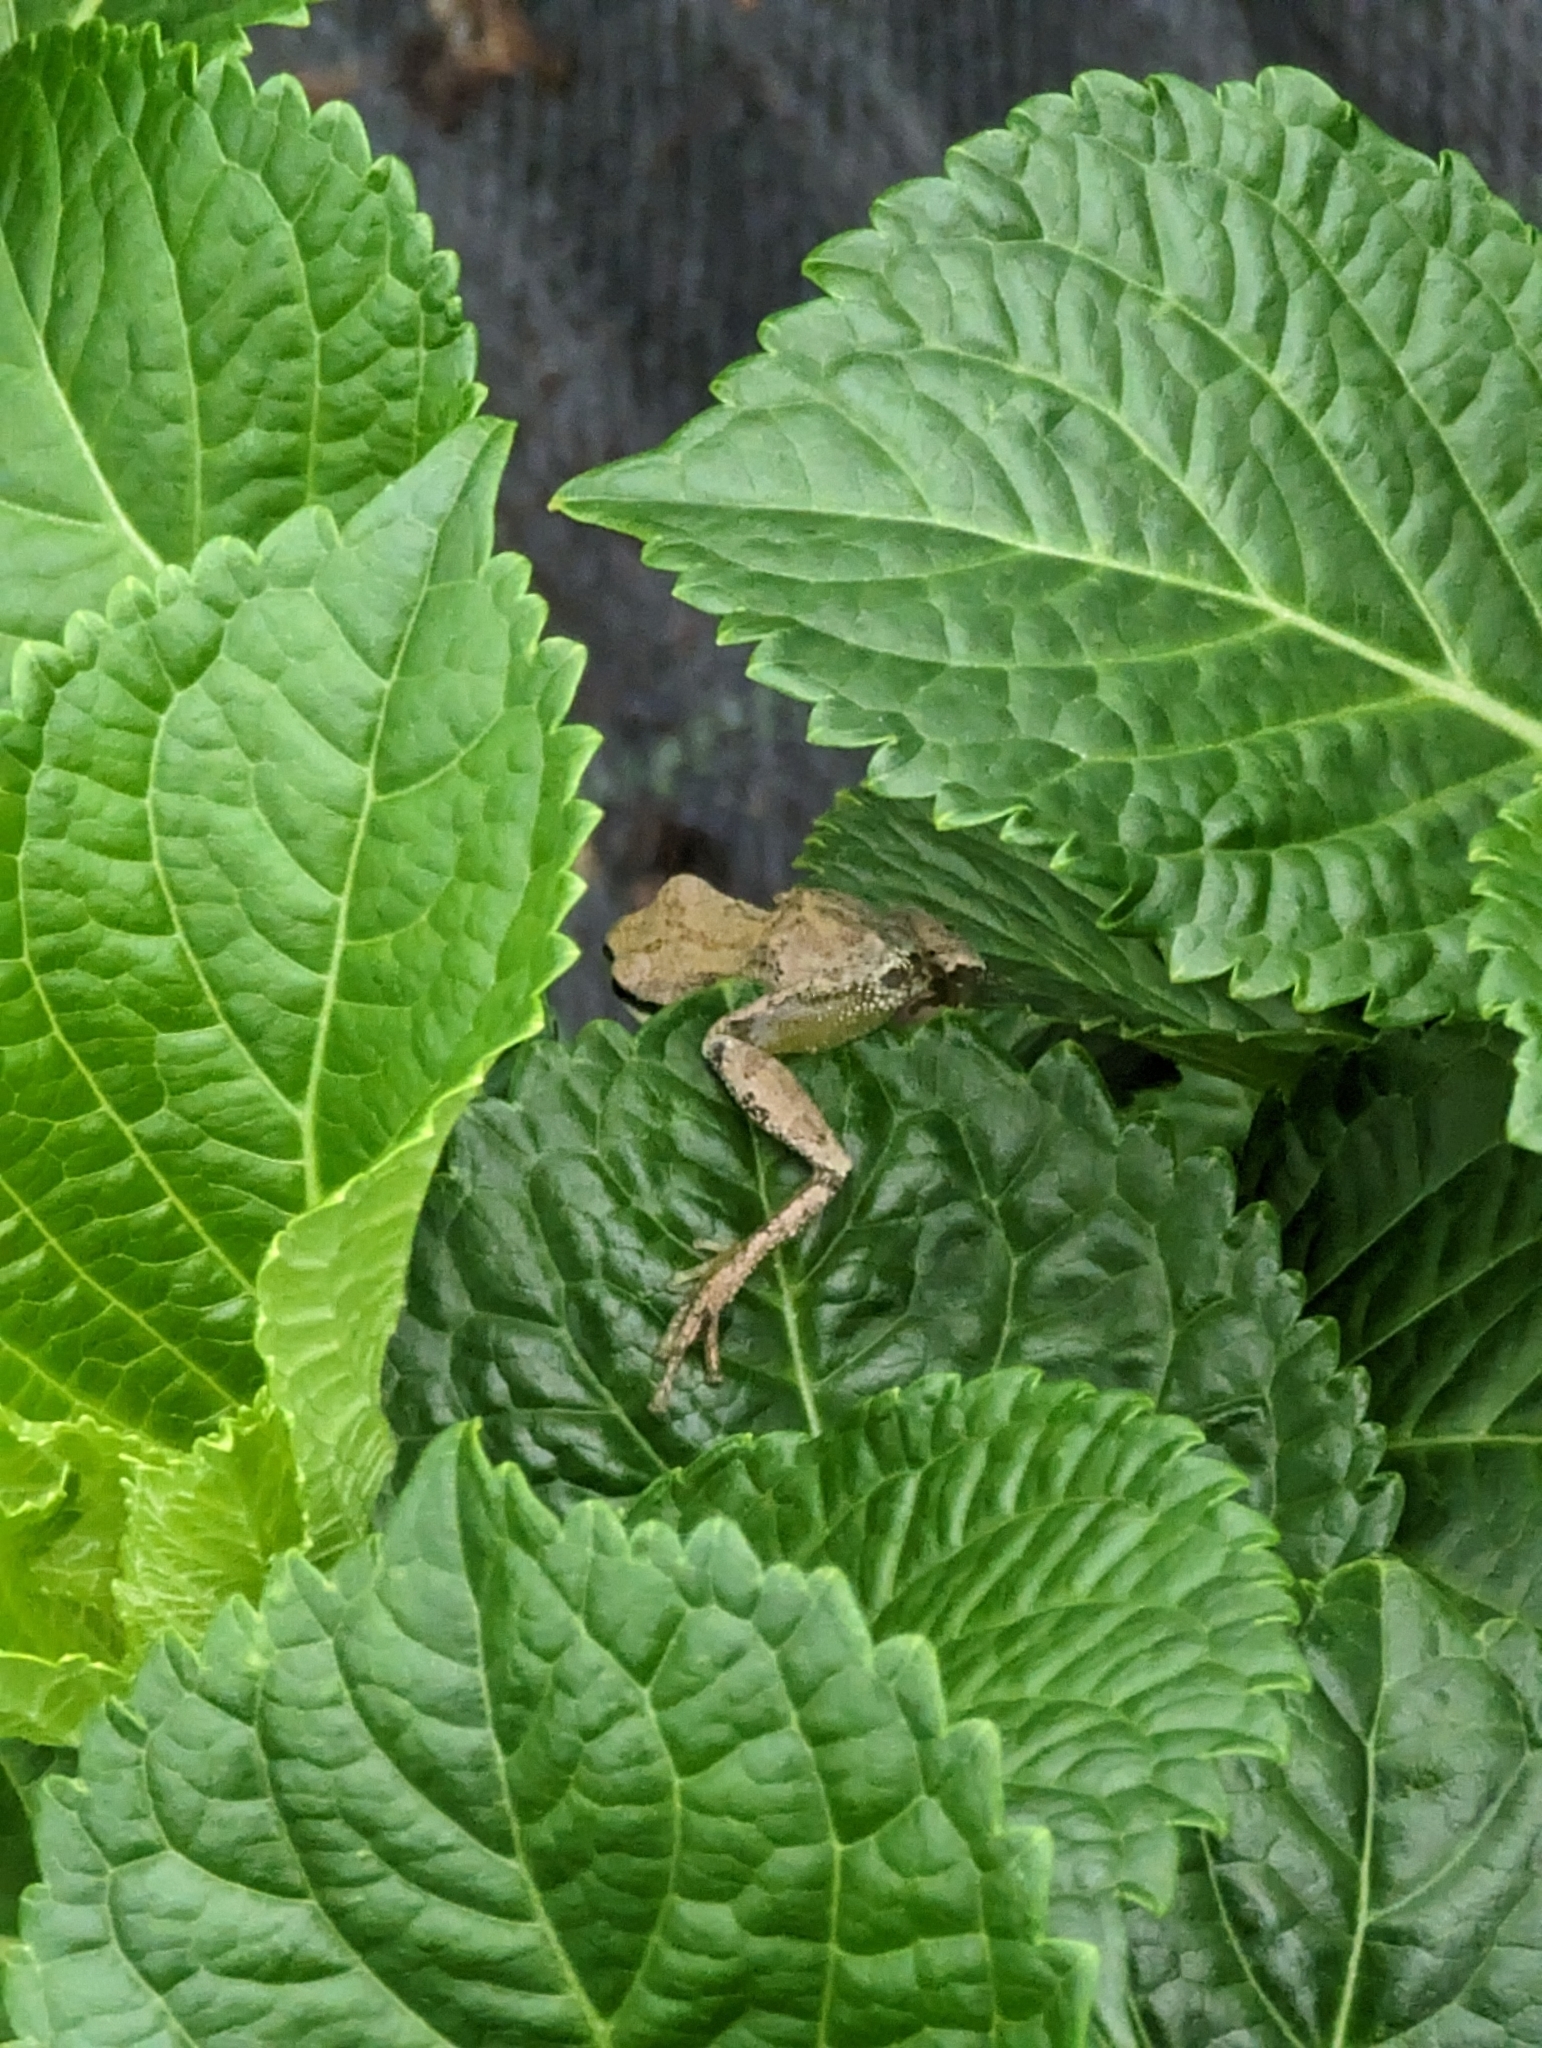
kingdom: Animalia
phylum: Chordata
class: Amphibia
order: Anura
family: Hylidae
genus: Pseudacris
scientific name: Pseudacris regilla
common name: Pacific chorus frog
